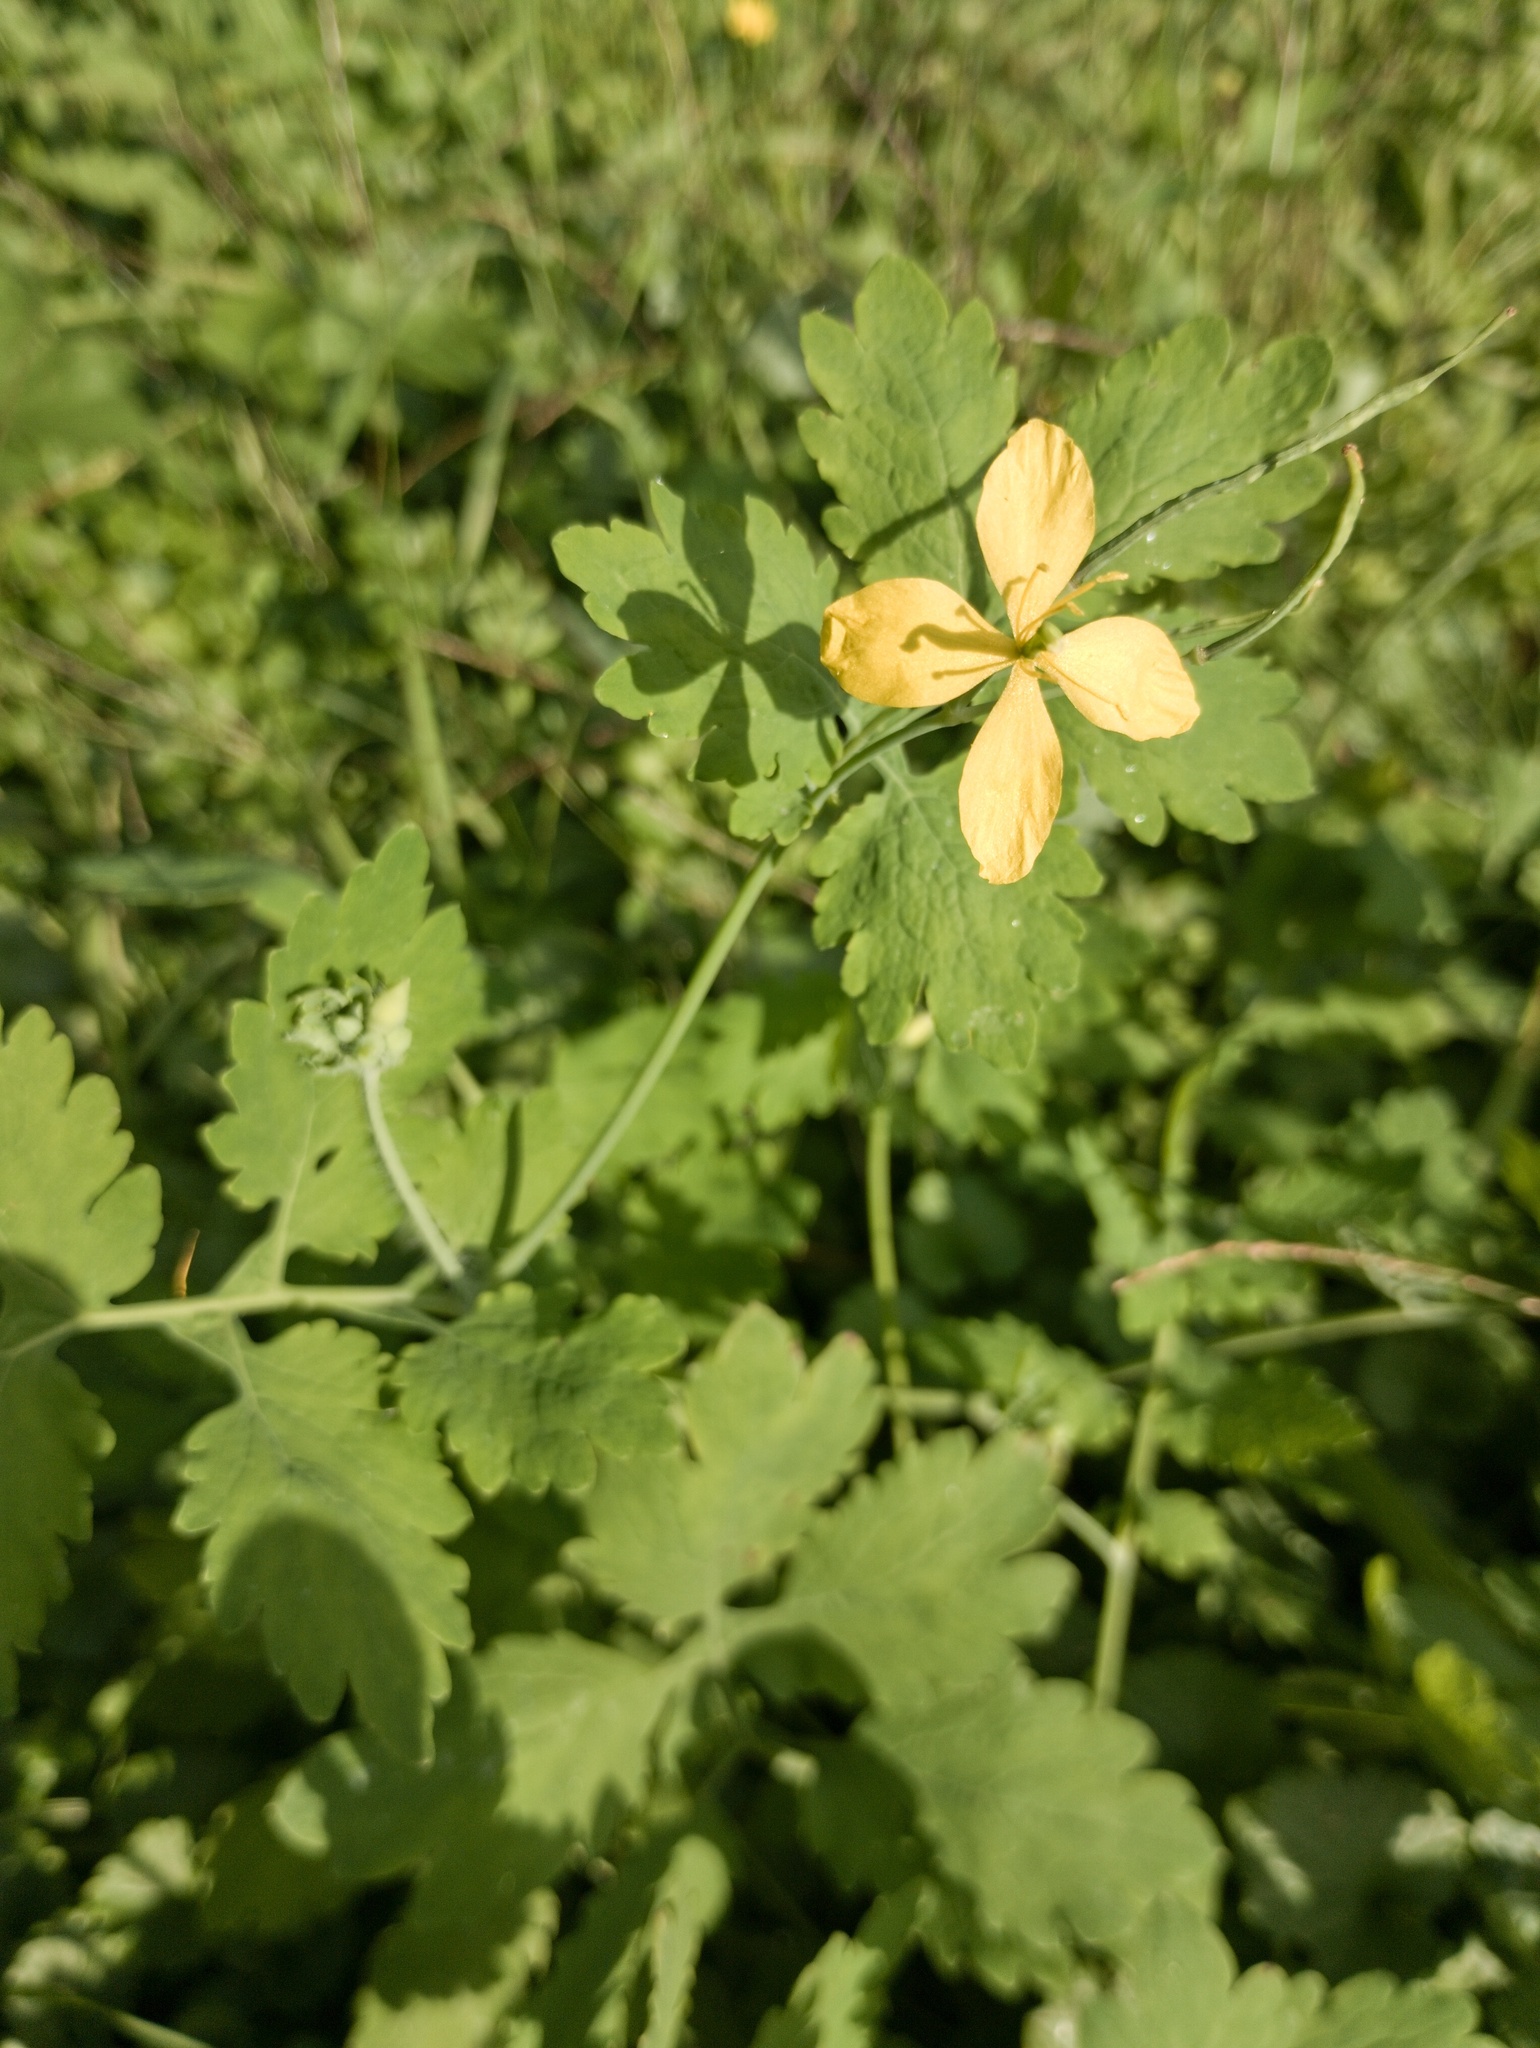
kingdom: Plantae
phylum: Tracheophyta
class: Magnoliopsida
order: Ranunculales
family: Papaveraceae
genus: Chelidonium
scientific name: Chelidonium majus
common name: Greater celandine
